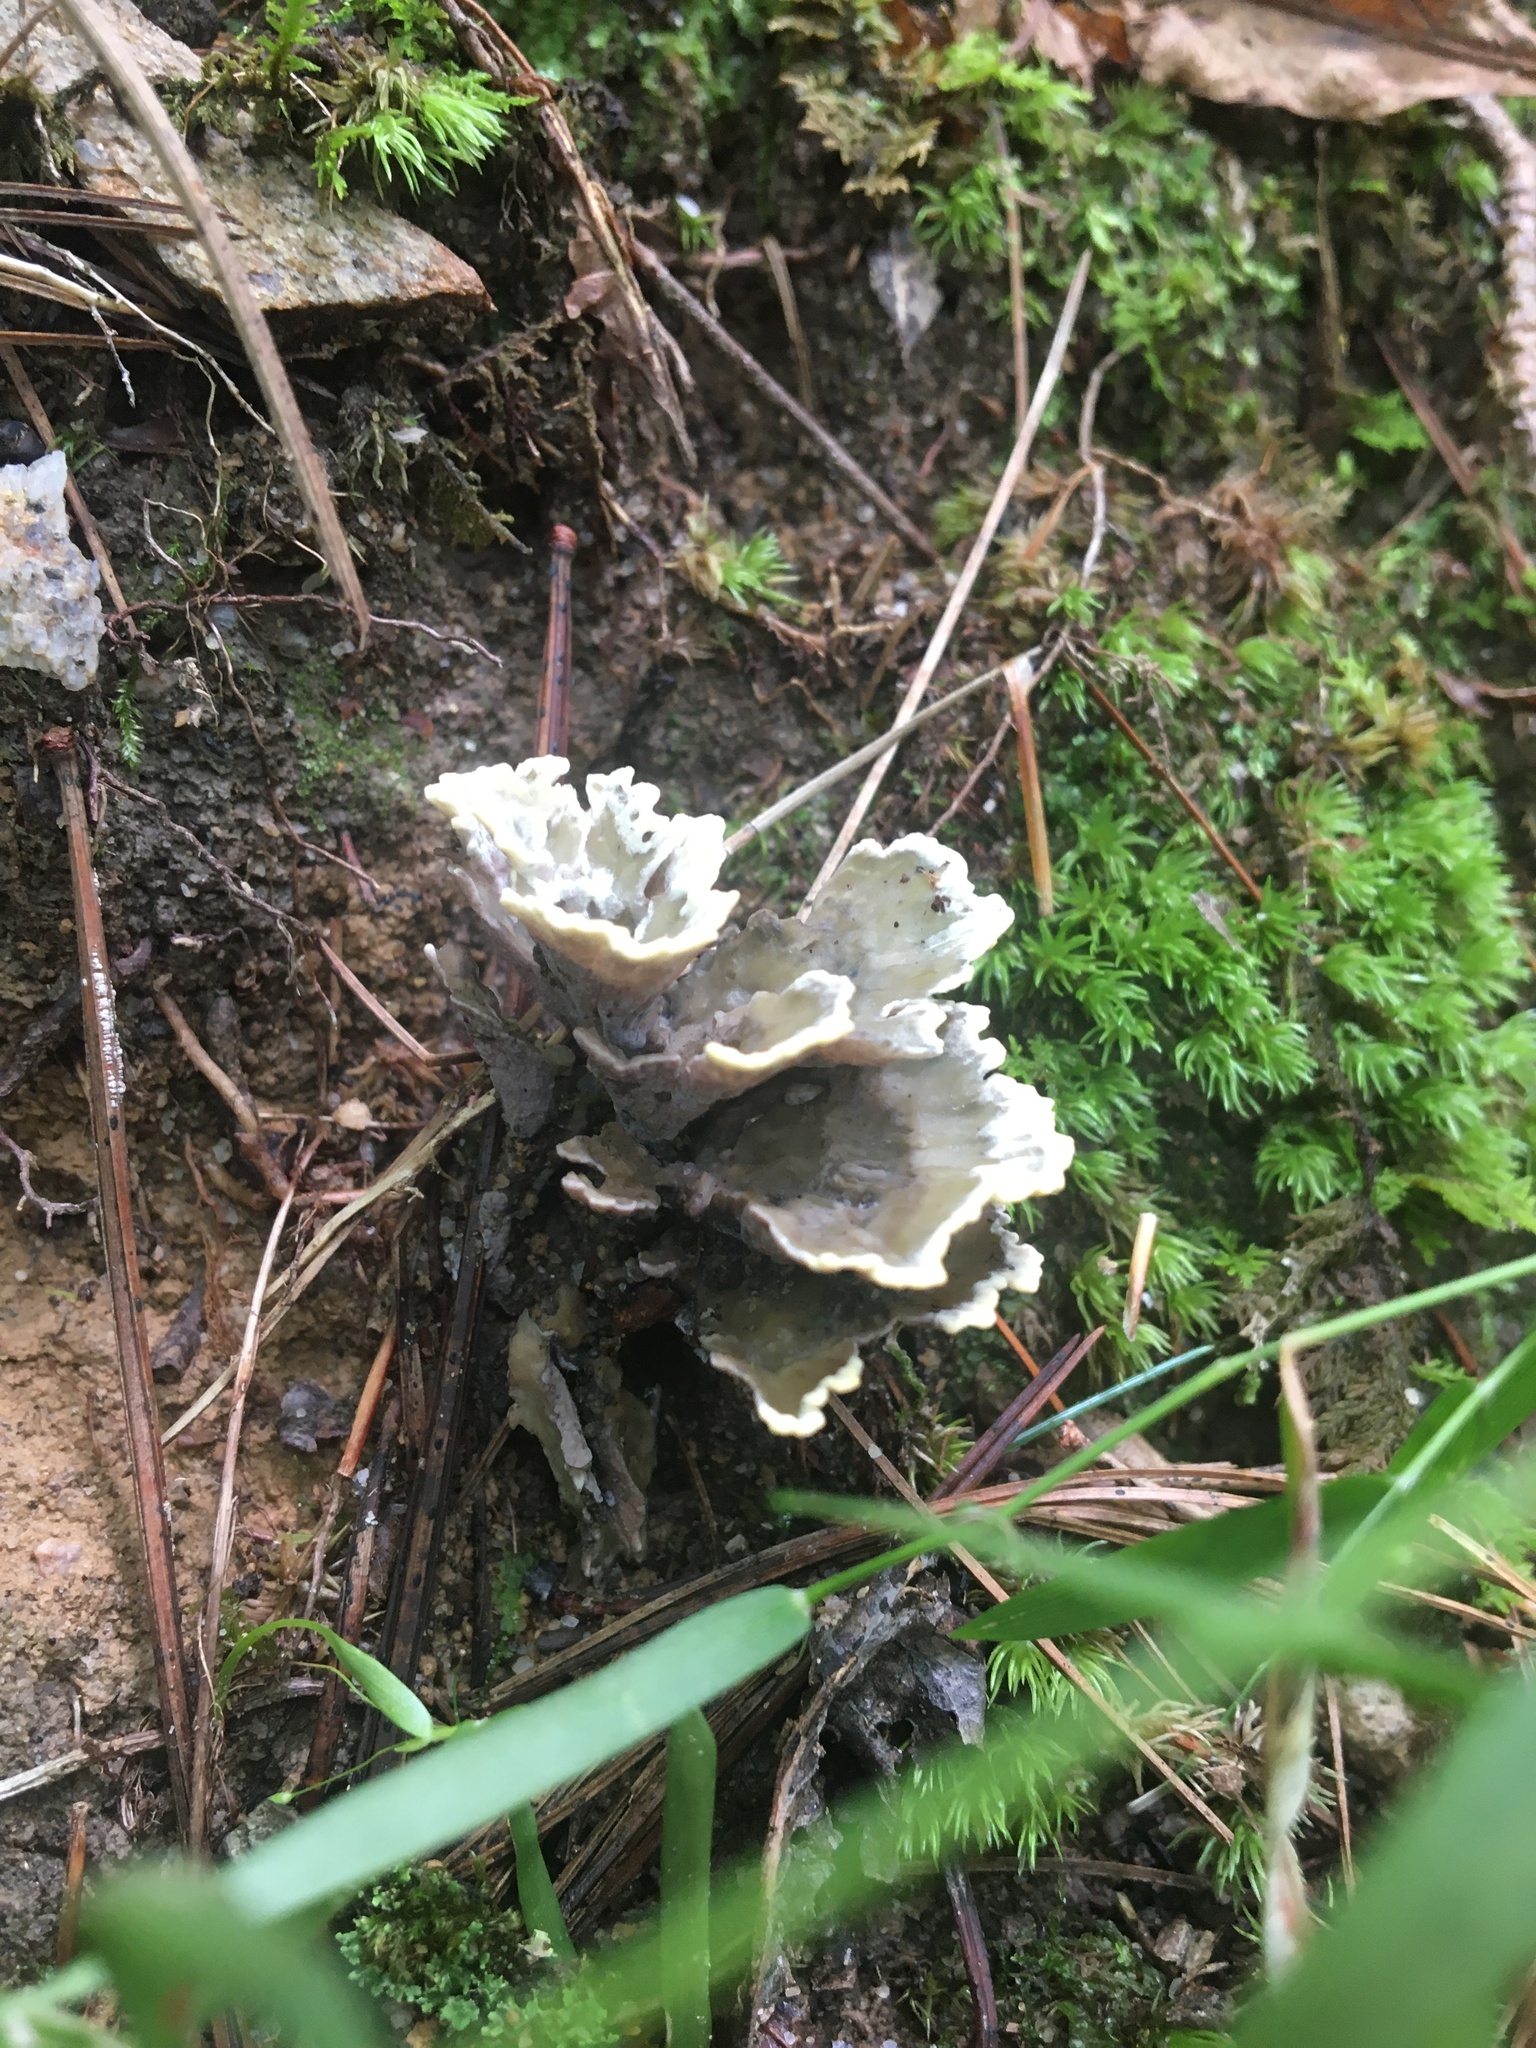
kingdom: Fungi
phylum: Basidiomycota
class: Agaricomycetes
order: Thelephorales
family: Thelephoraceae
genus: Thelephora
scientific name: Thelephora vialis
